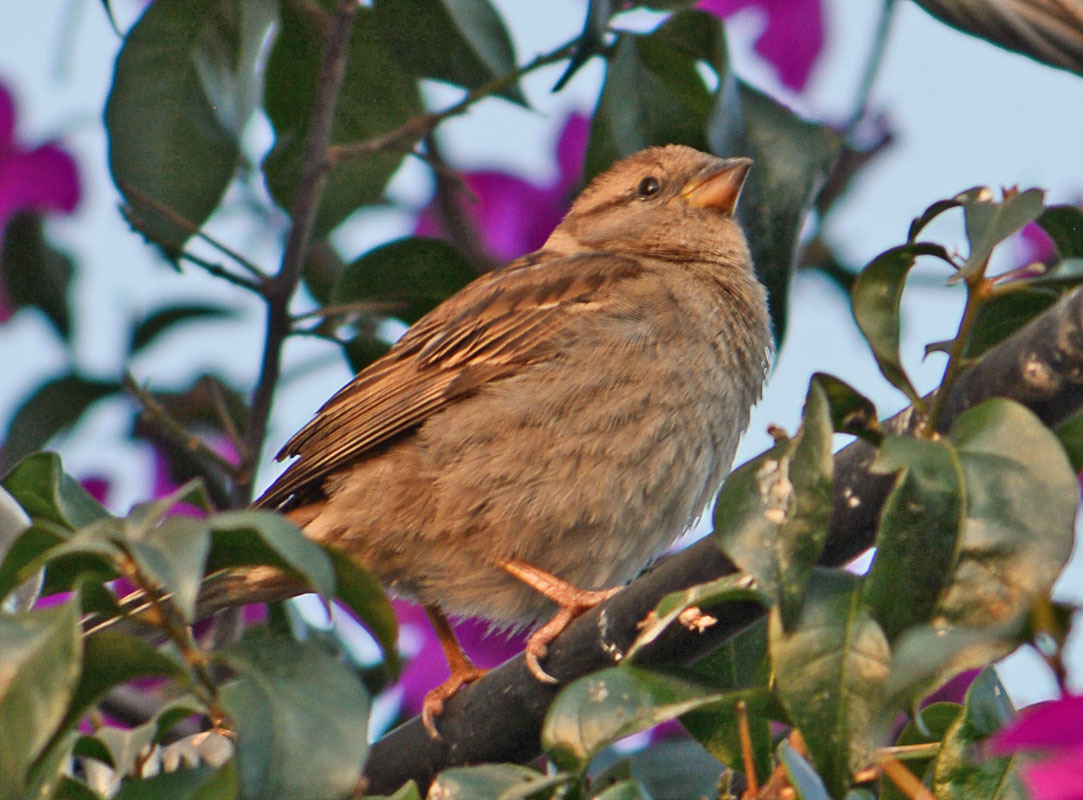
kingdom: Animalia
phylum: Chordata
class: Aves
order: Passeriformes
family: Passeridae
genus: Passer
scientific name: Passer domesticus
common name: House sparrow
